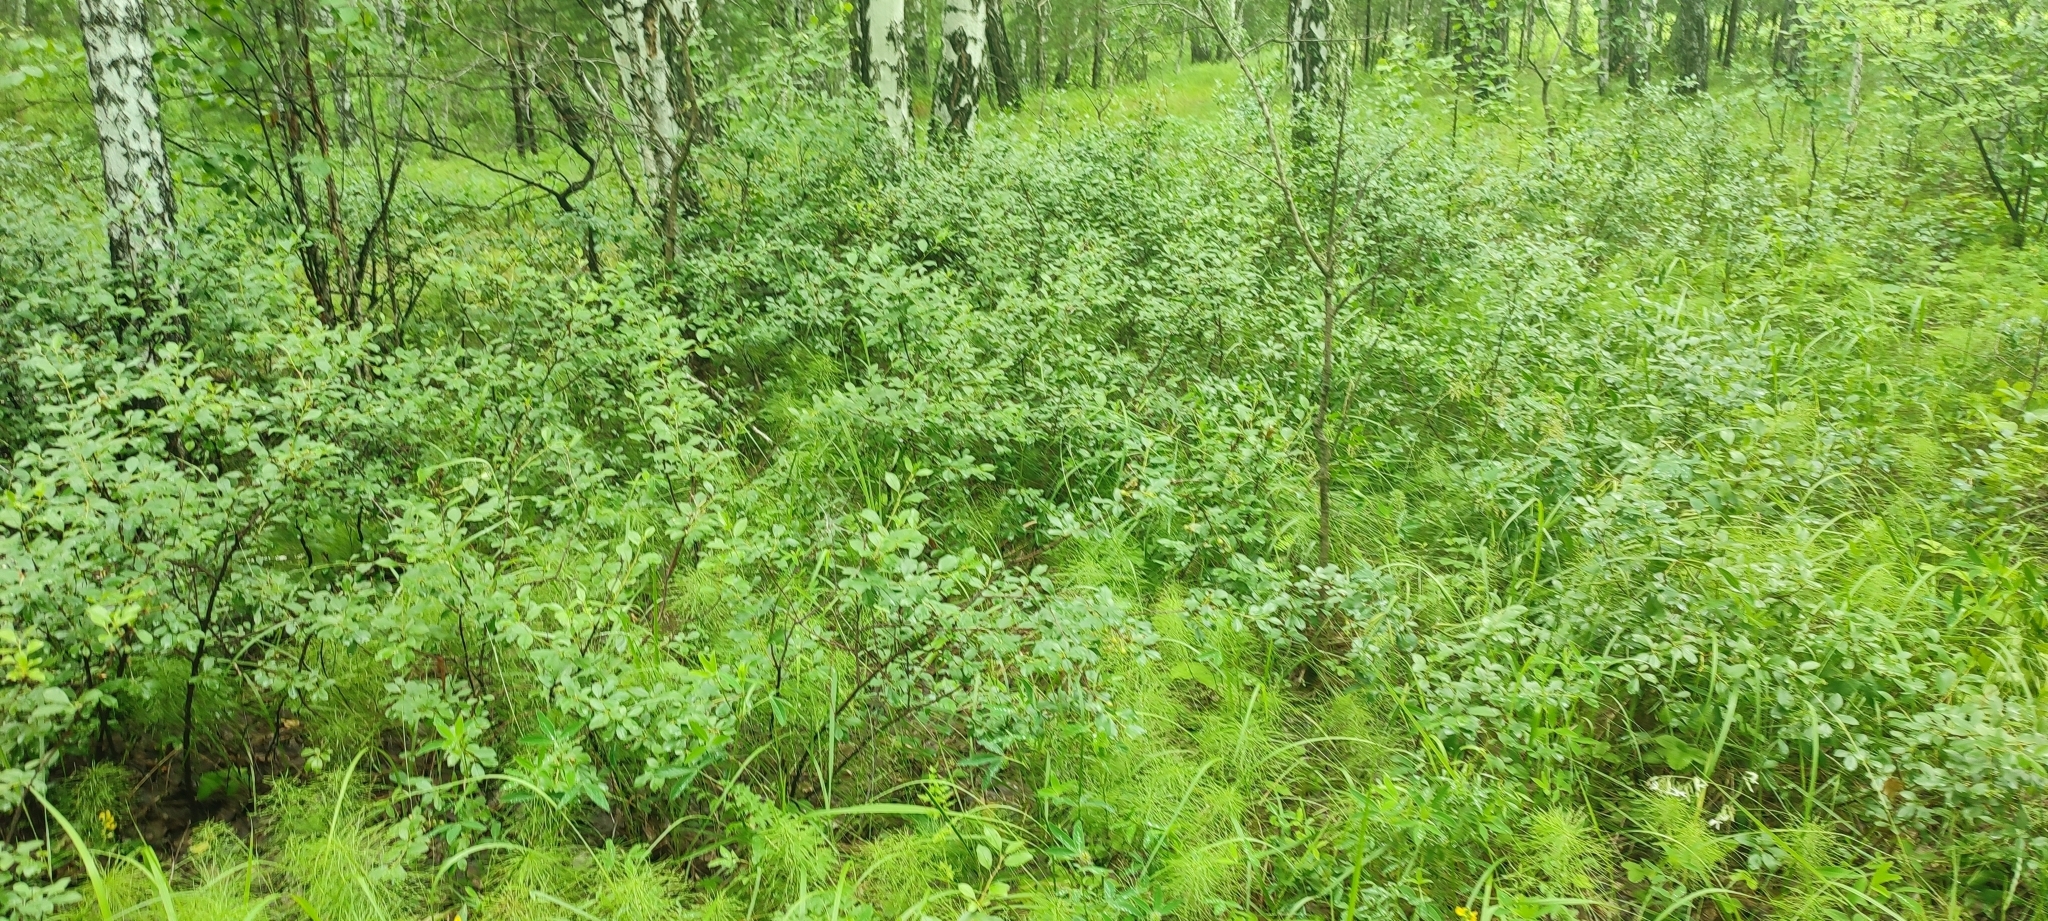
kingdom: Plantae
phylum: Tracheophyta
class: Magnoliopsida
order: Rosales
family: Rosaceae
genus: Prunus
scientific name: Prunus fruticosa
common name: European dwarf cherry
